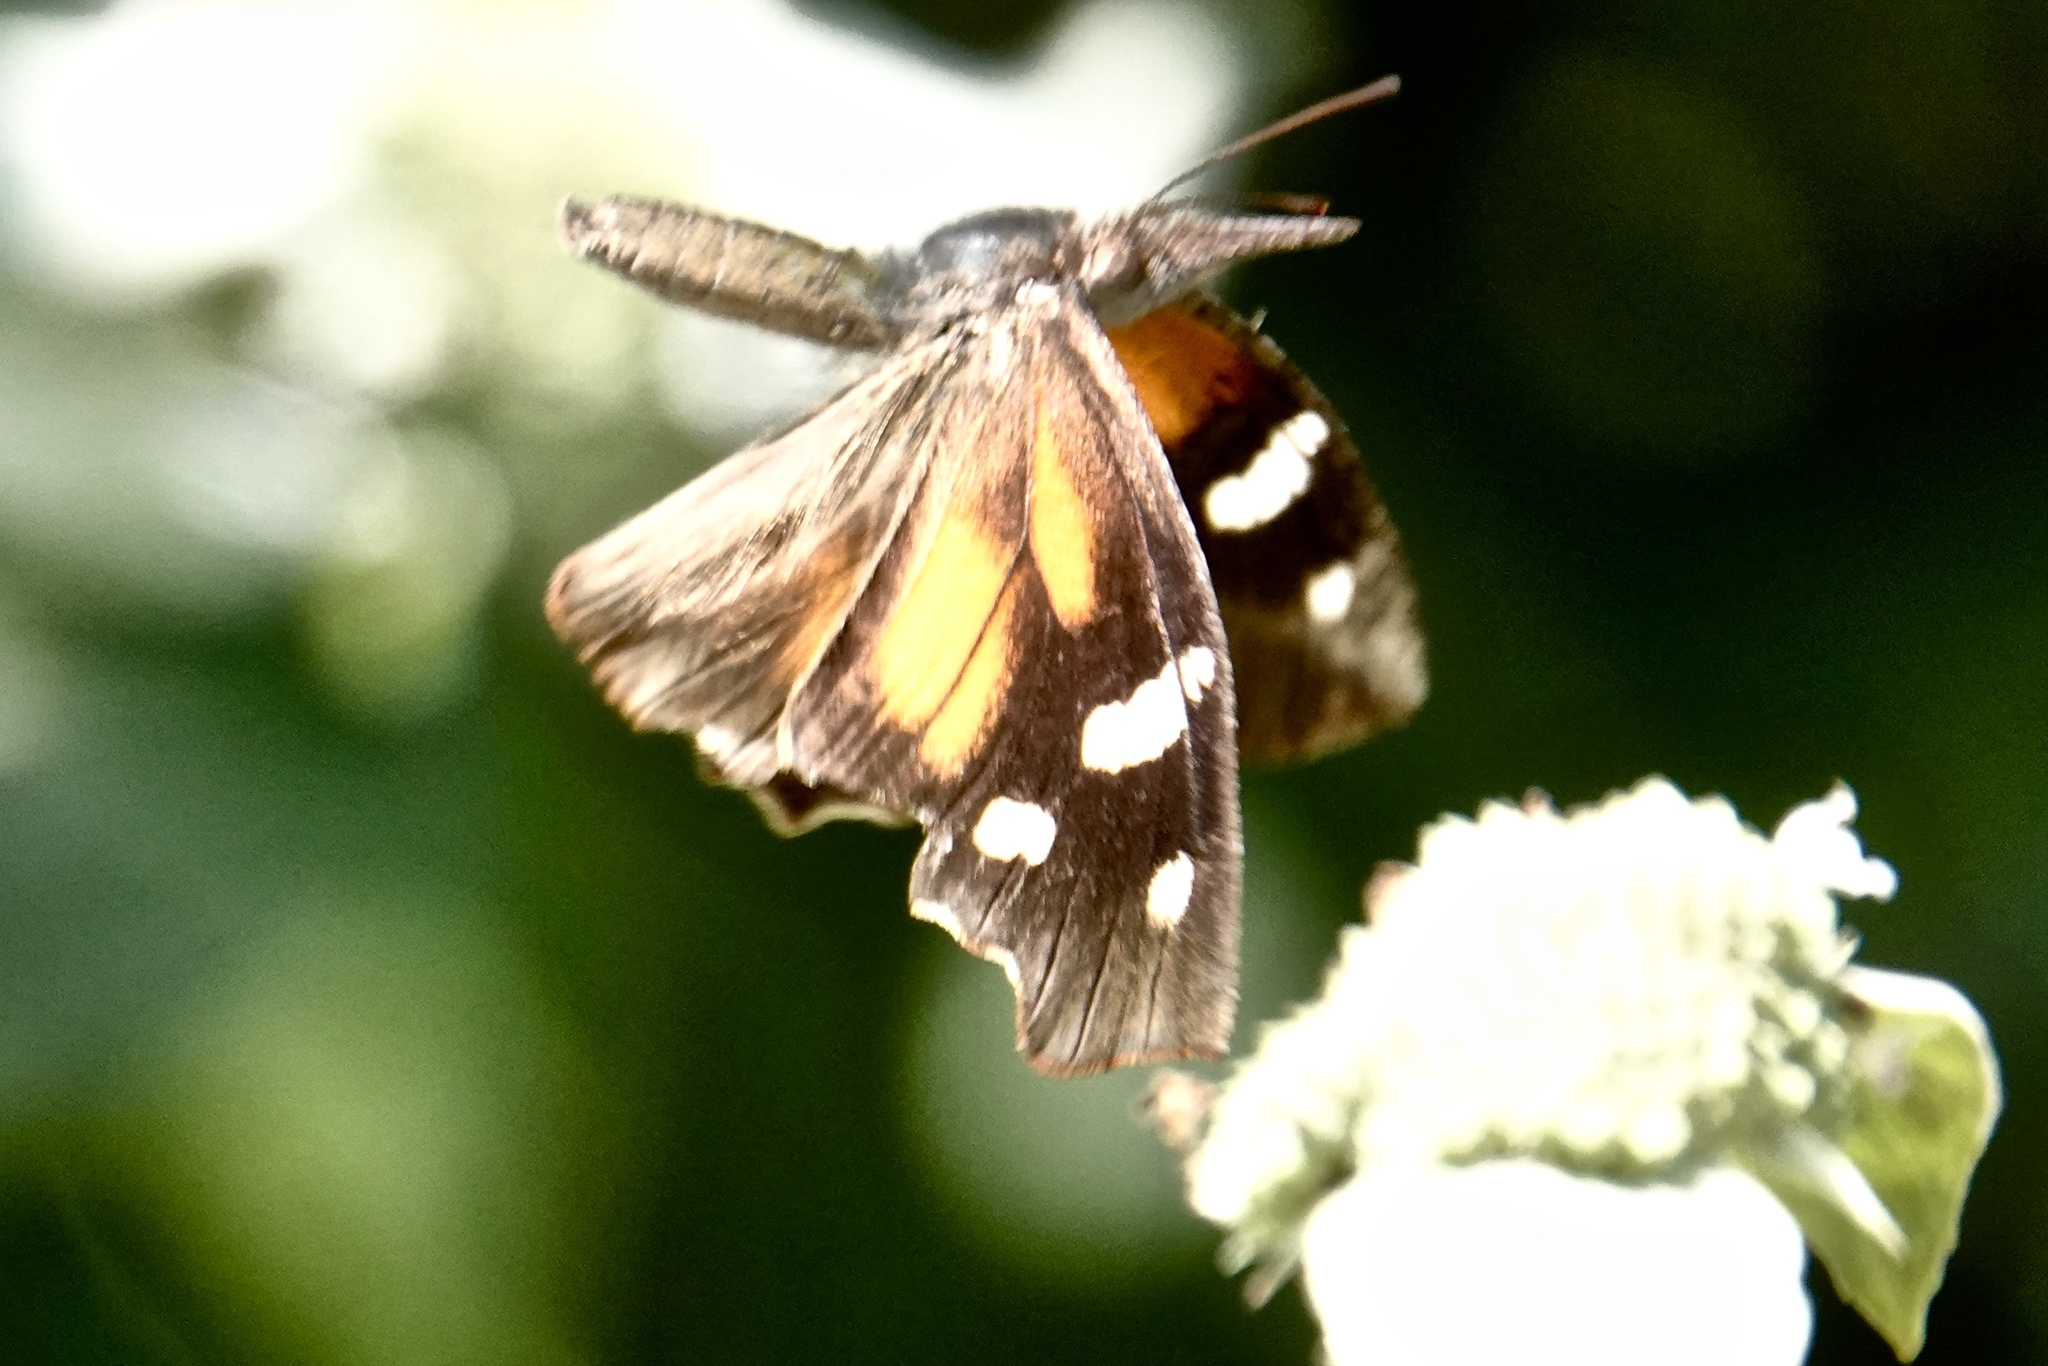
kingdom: Animalia
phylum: Arthropoda
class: Insecta
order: Lepidoptera
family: Nymphalidae
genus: Libytheana
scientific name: Libytheana carinenta
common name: American snout
